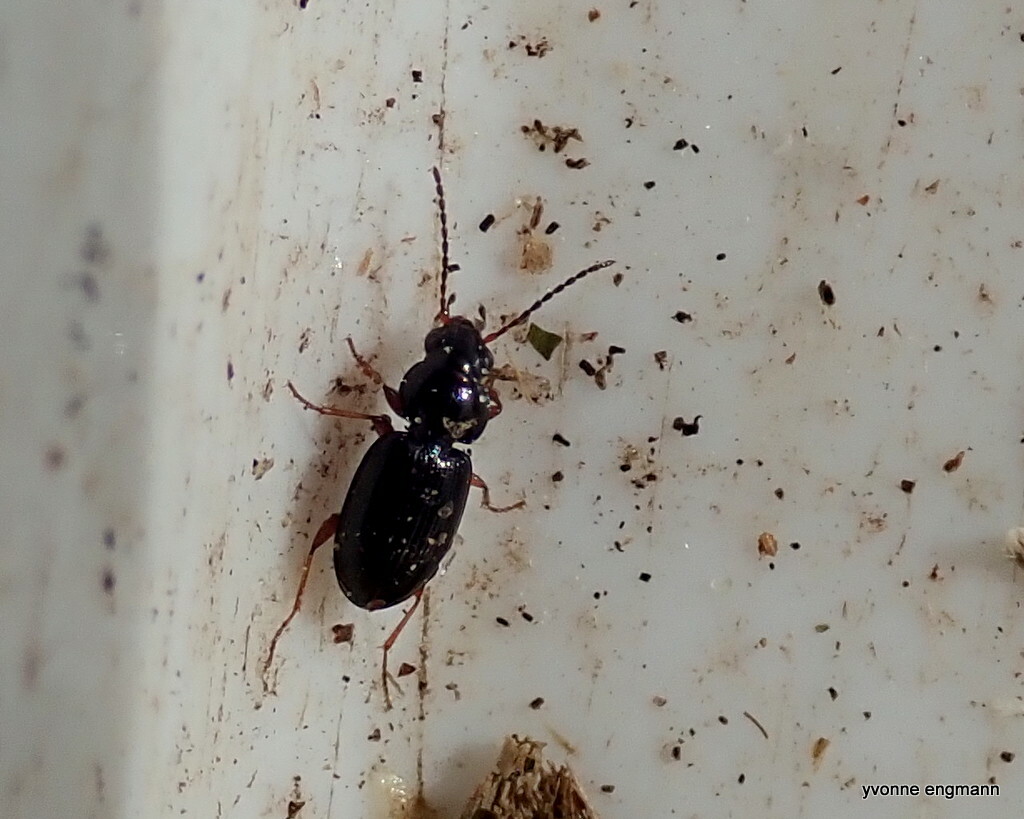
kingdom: Animalia
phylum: Arthropoda
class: Insecta
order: Coleoptera
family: Carabidae
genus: Bembidion
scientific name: Bembidion obtusum
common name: Paris riverbank ground beetle
